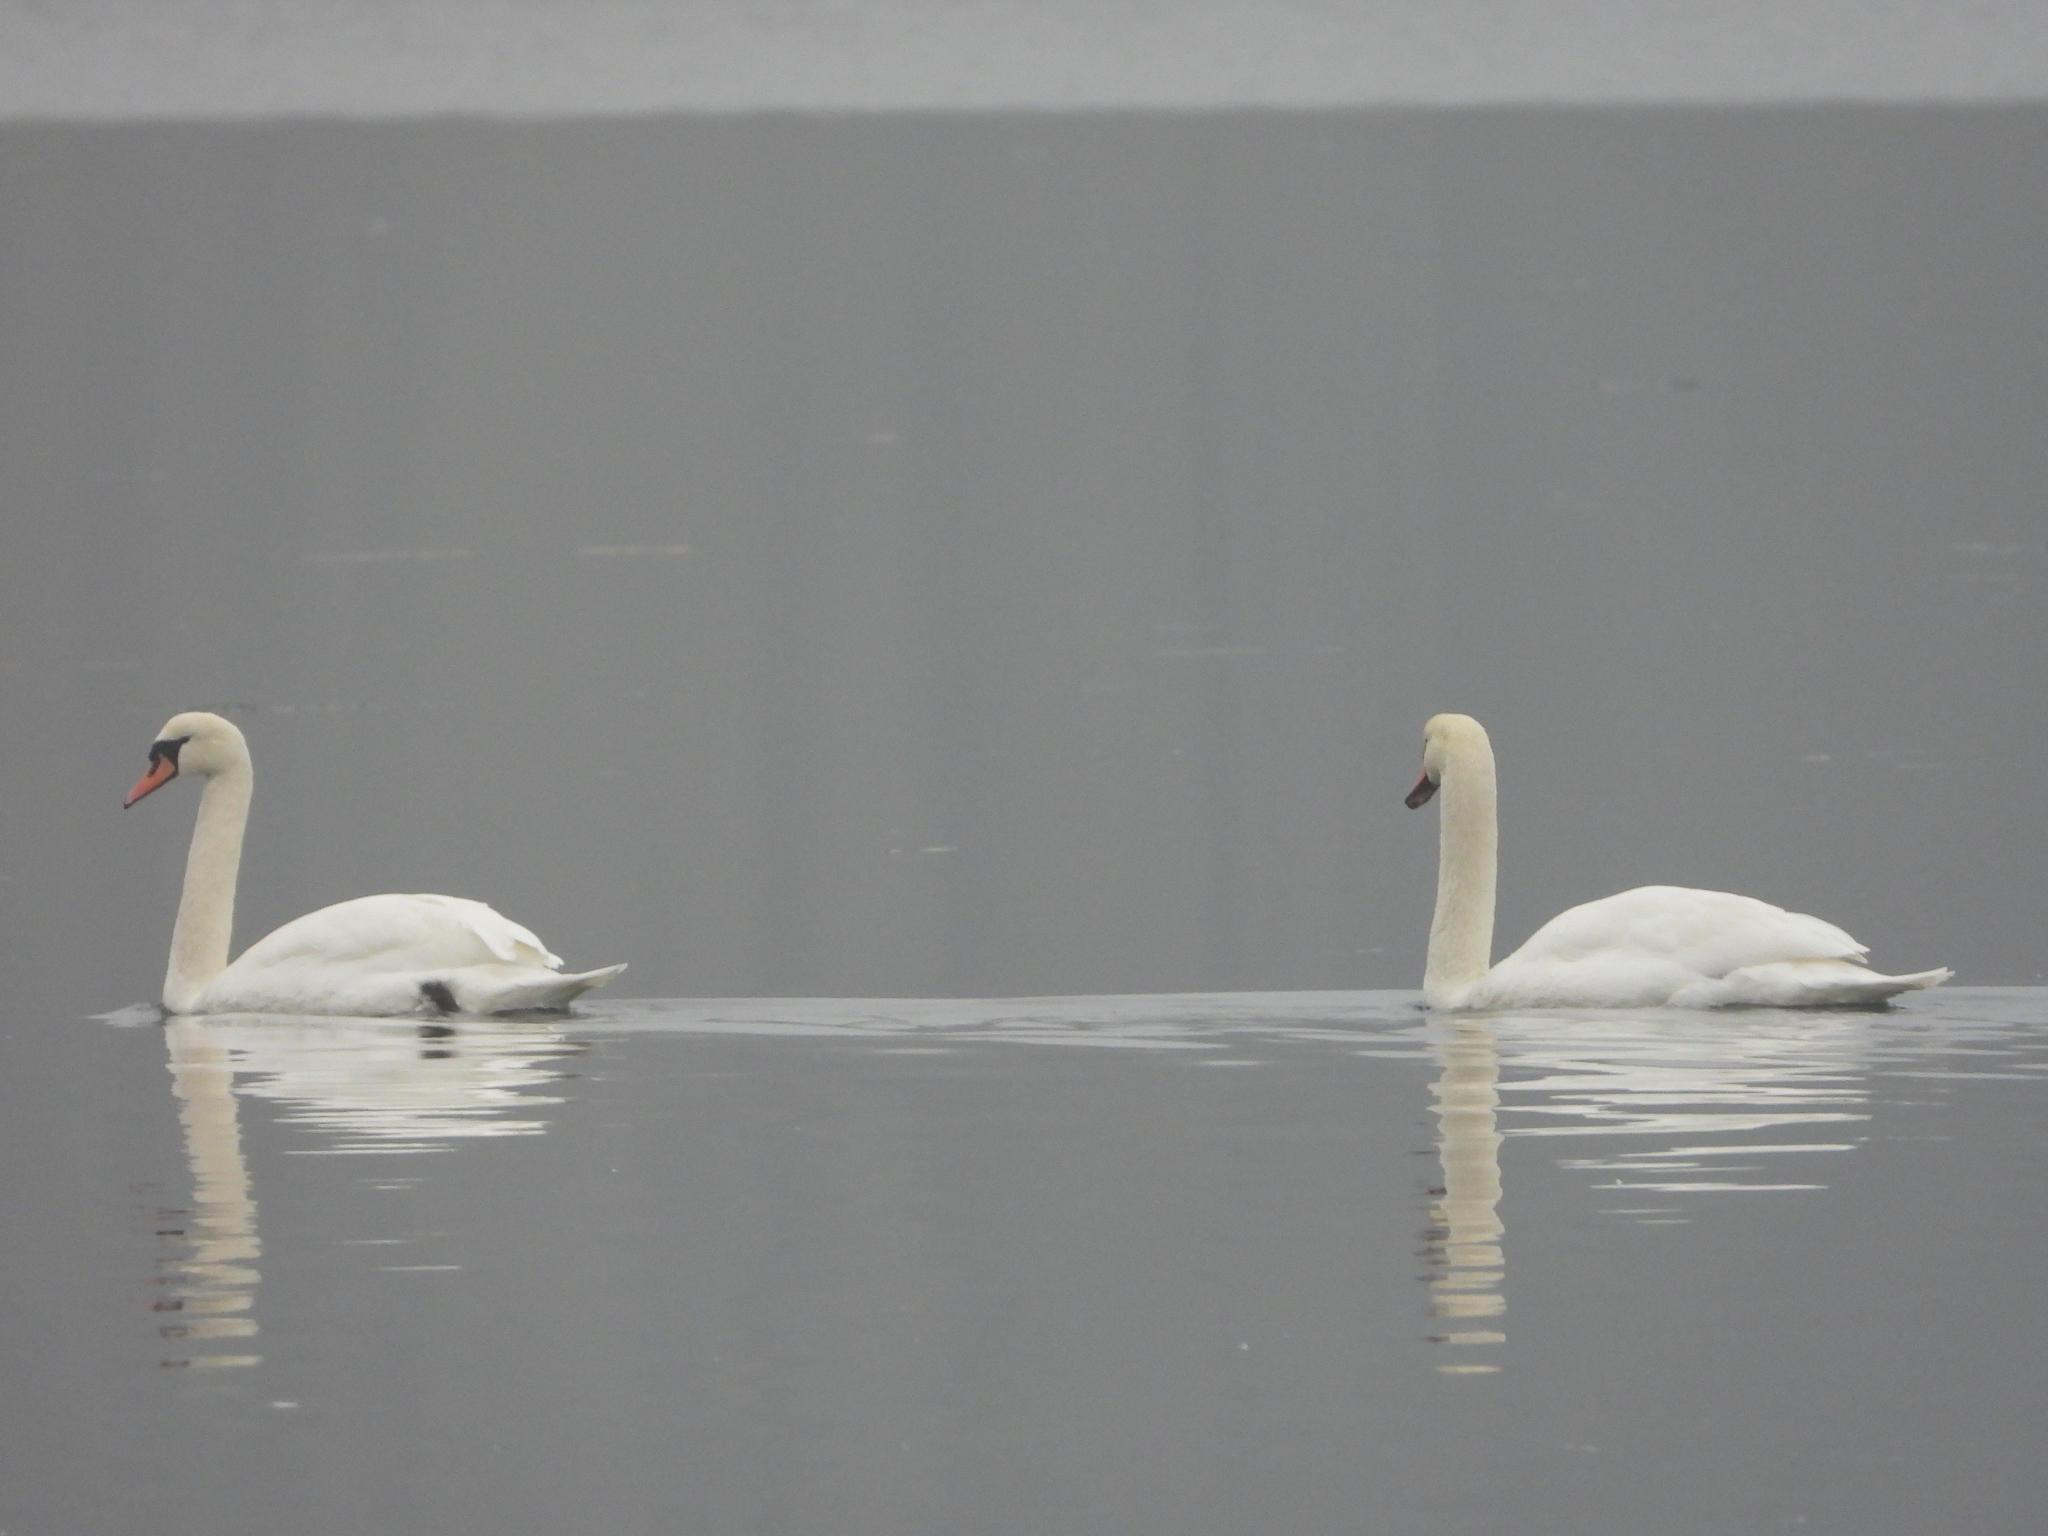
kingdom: Animalia
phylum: Chordata
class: Aves
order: Anseriformes
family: Anatidae
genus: Cygnus
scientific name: Cygnus olor
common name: Mute swan
